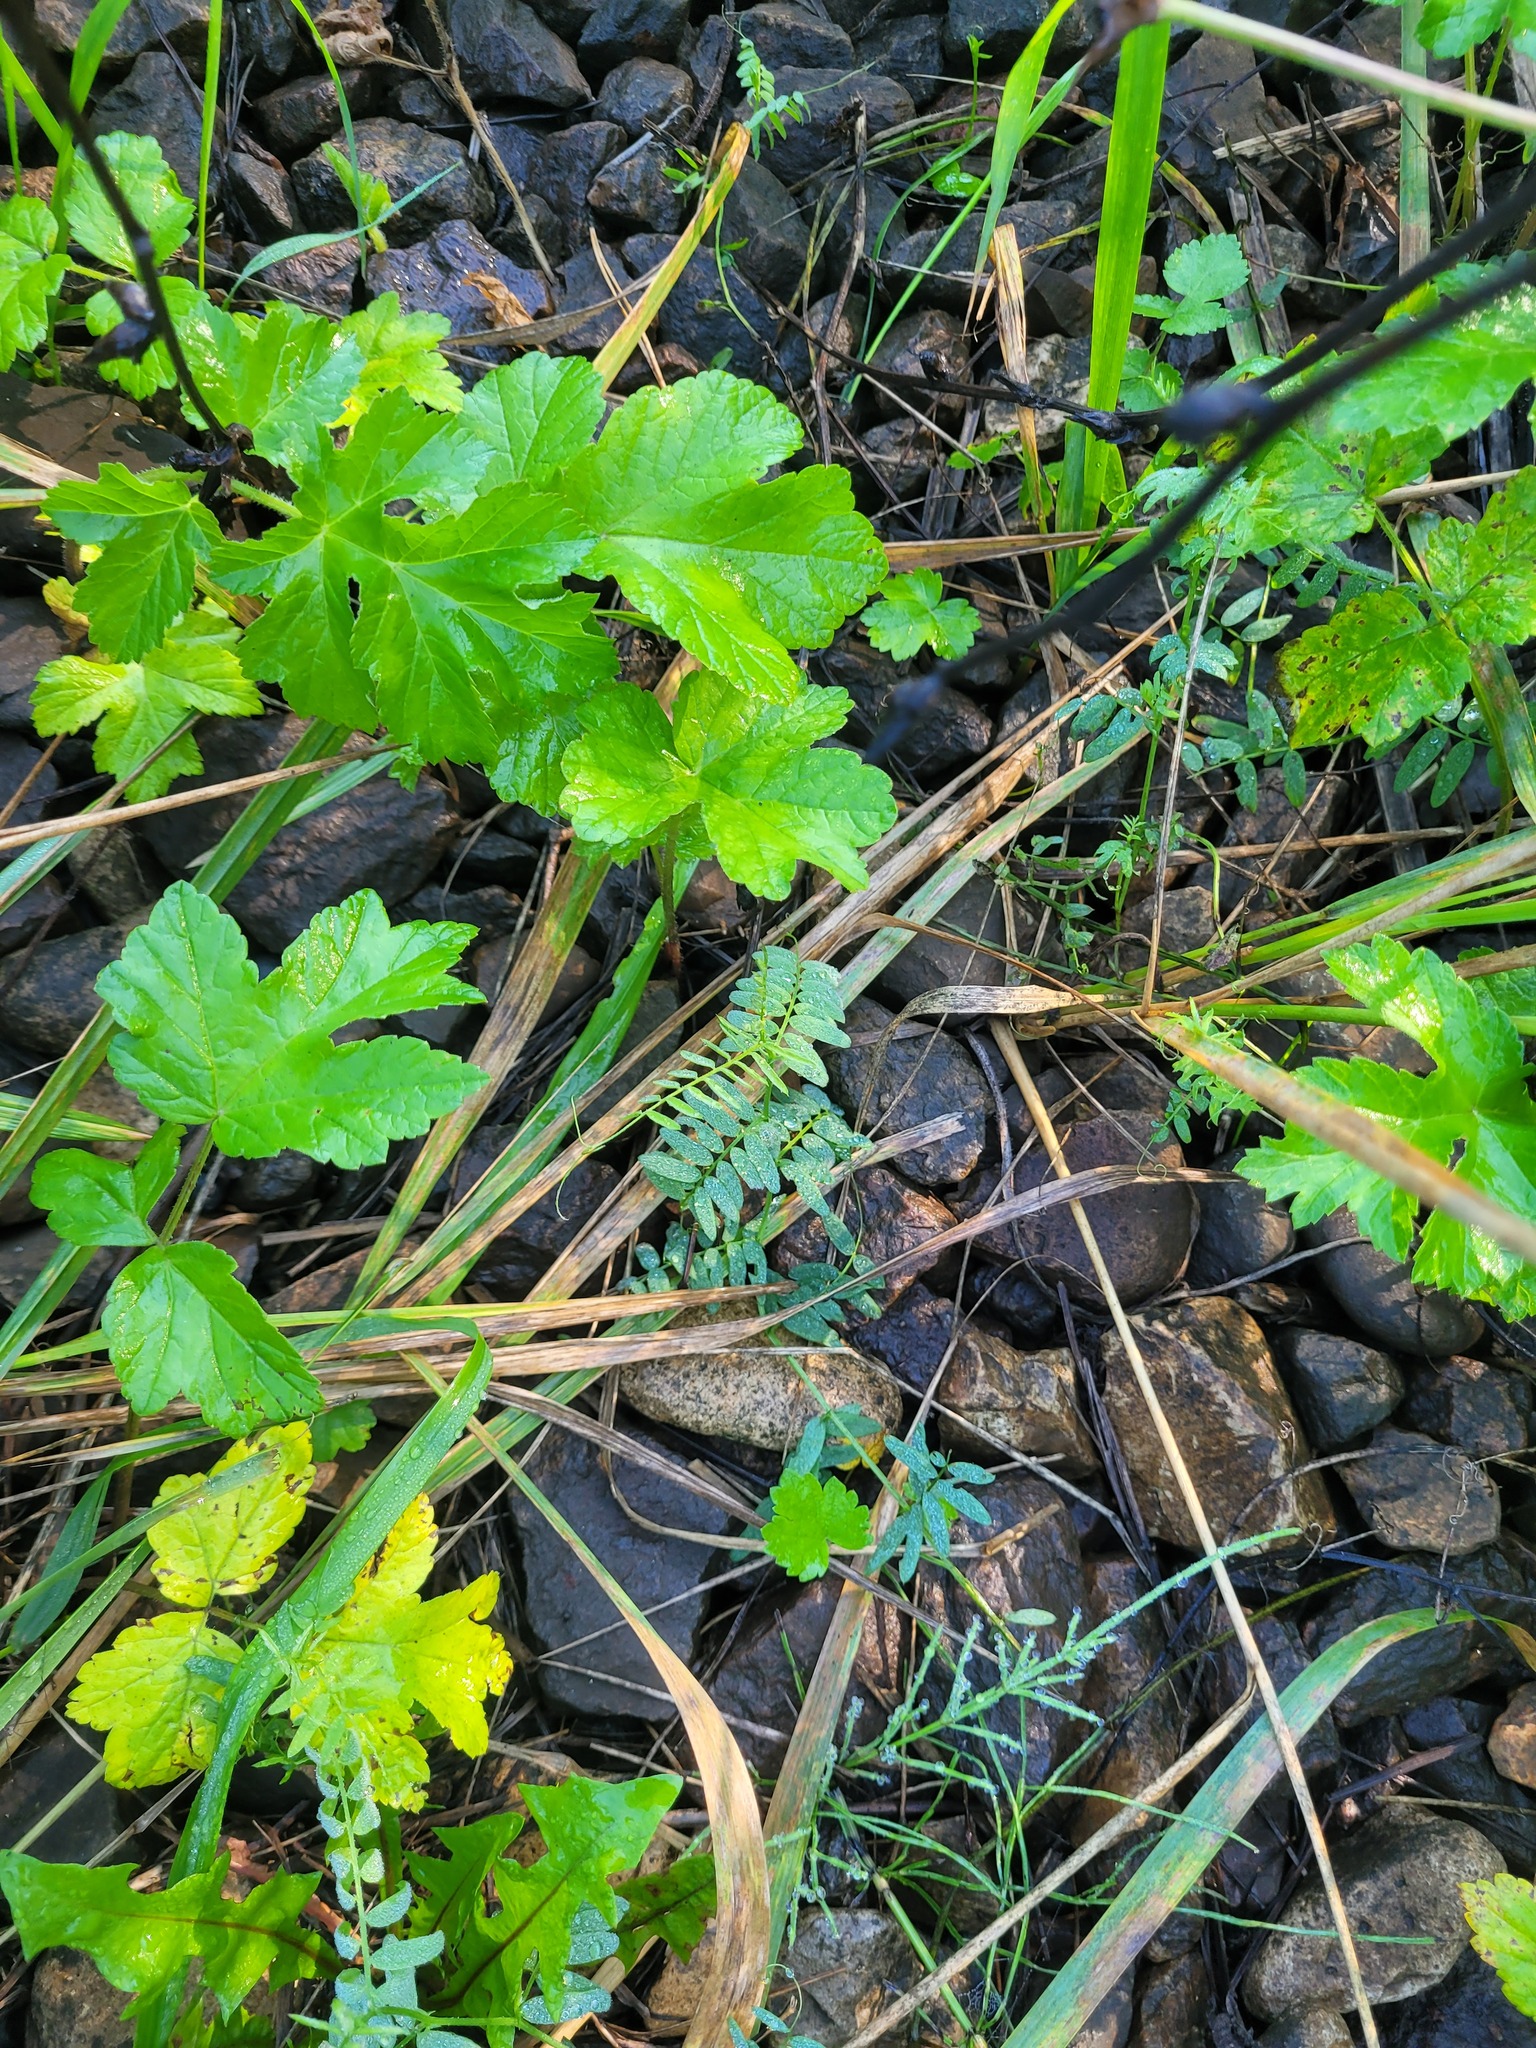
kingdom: Plantae
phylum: Tracheophyta
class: Magnoliopsida
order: Fabales
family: Fabaceae
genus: Vicia
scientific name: Vicia cracca
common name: Bird vetch
